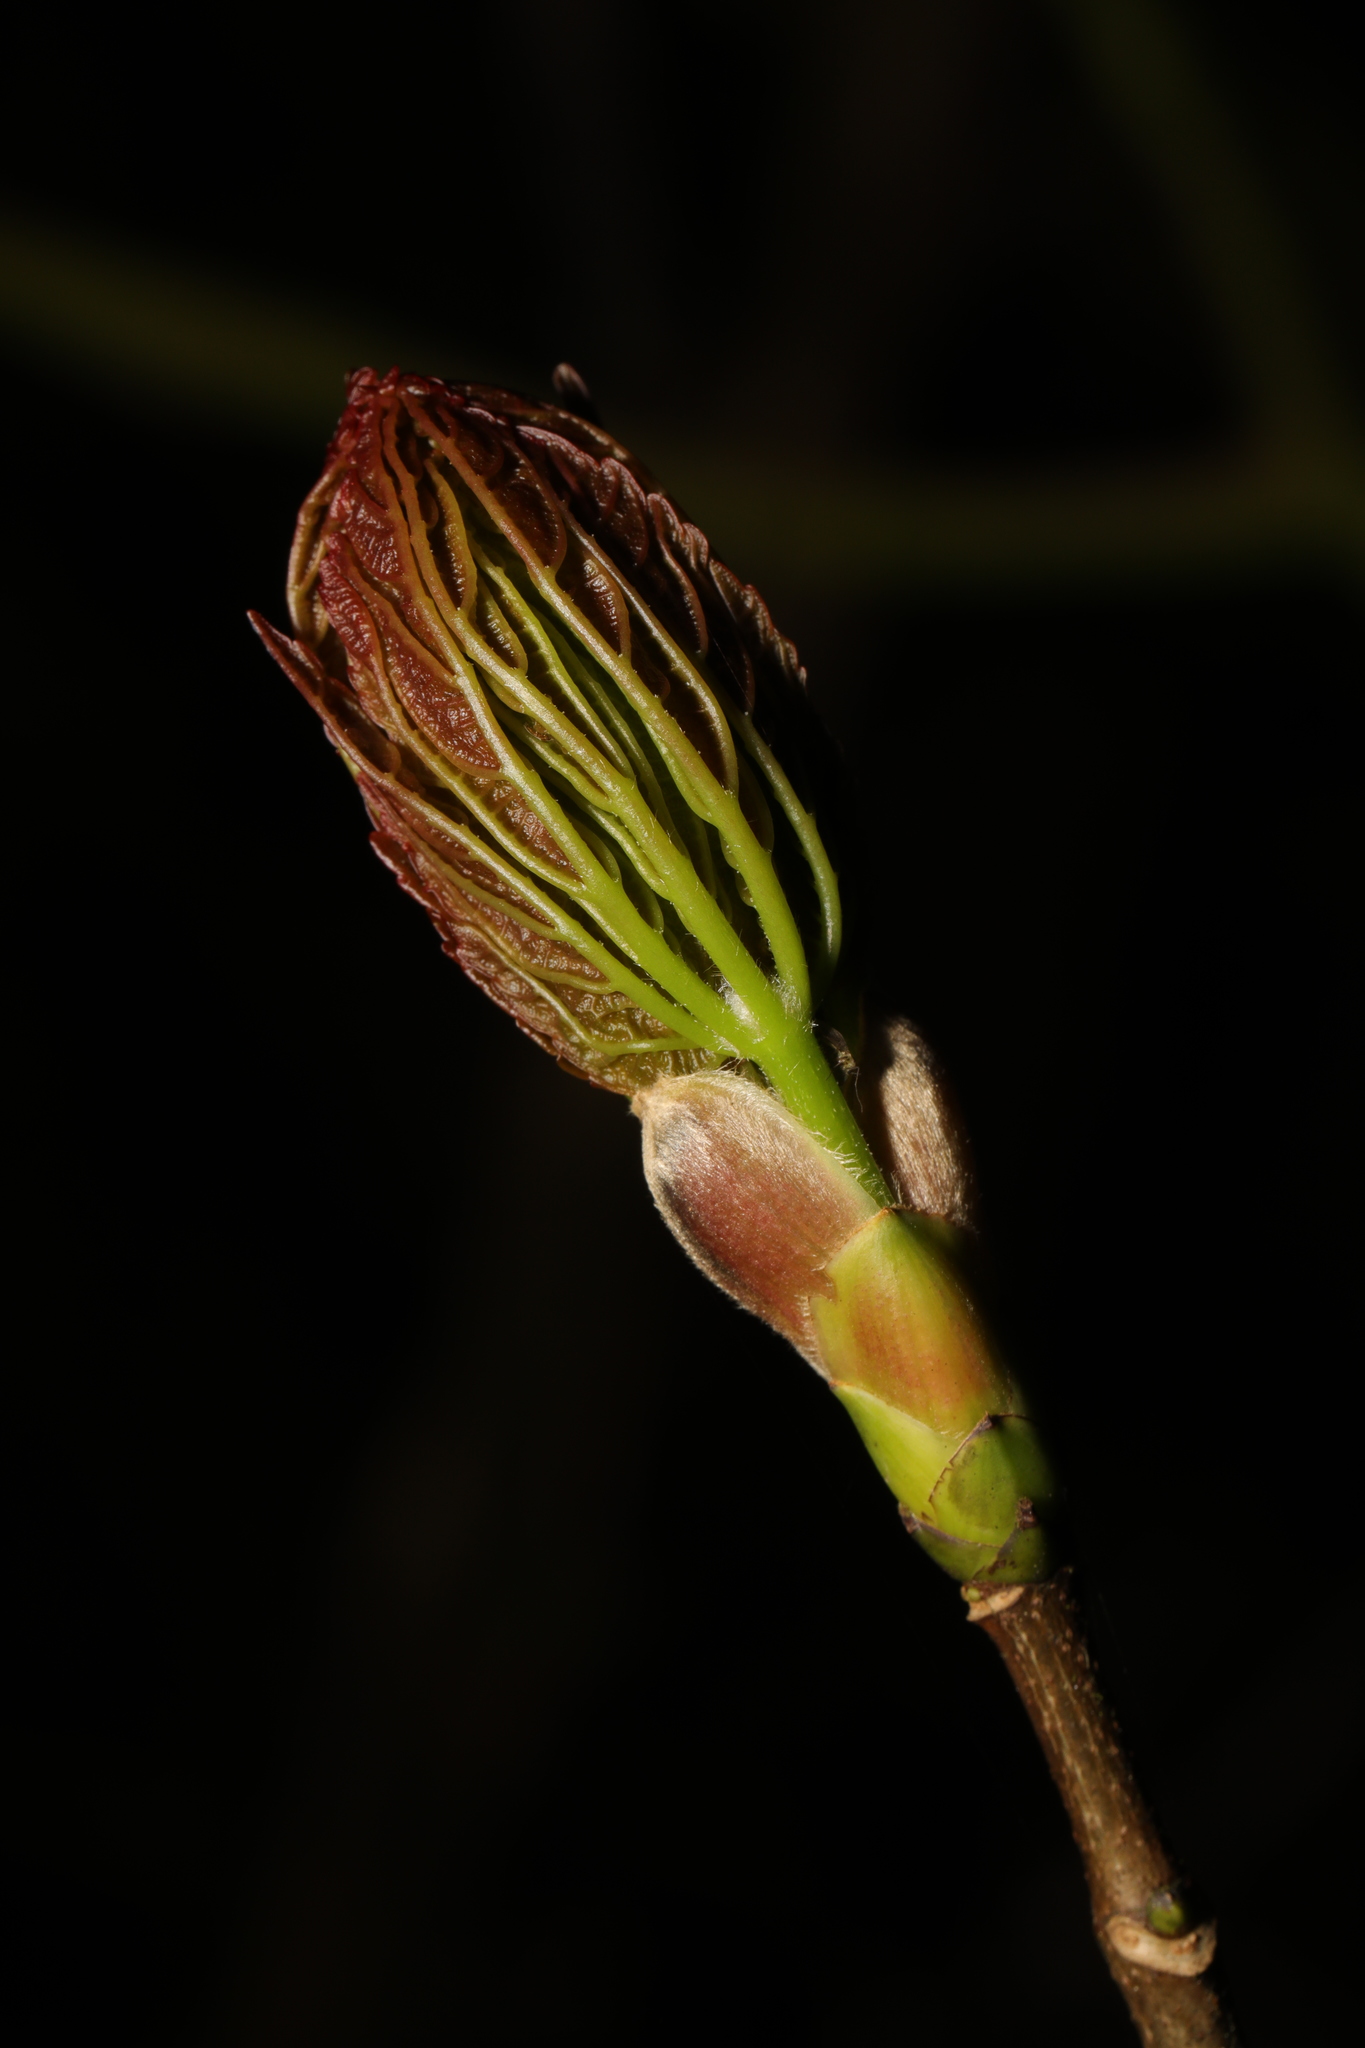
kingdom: Plantae
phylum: Tracheophyta
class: Magnoliopsida
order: Sapindales
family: Sapindaceae
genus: Aesculus
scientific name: Aesculus hippocastanum
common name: Horse-chestnut
